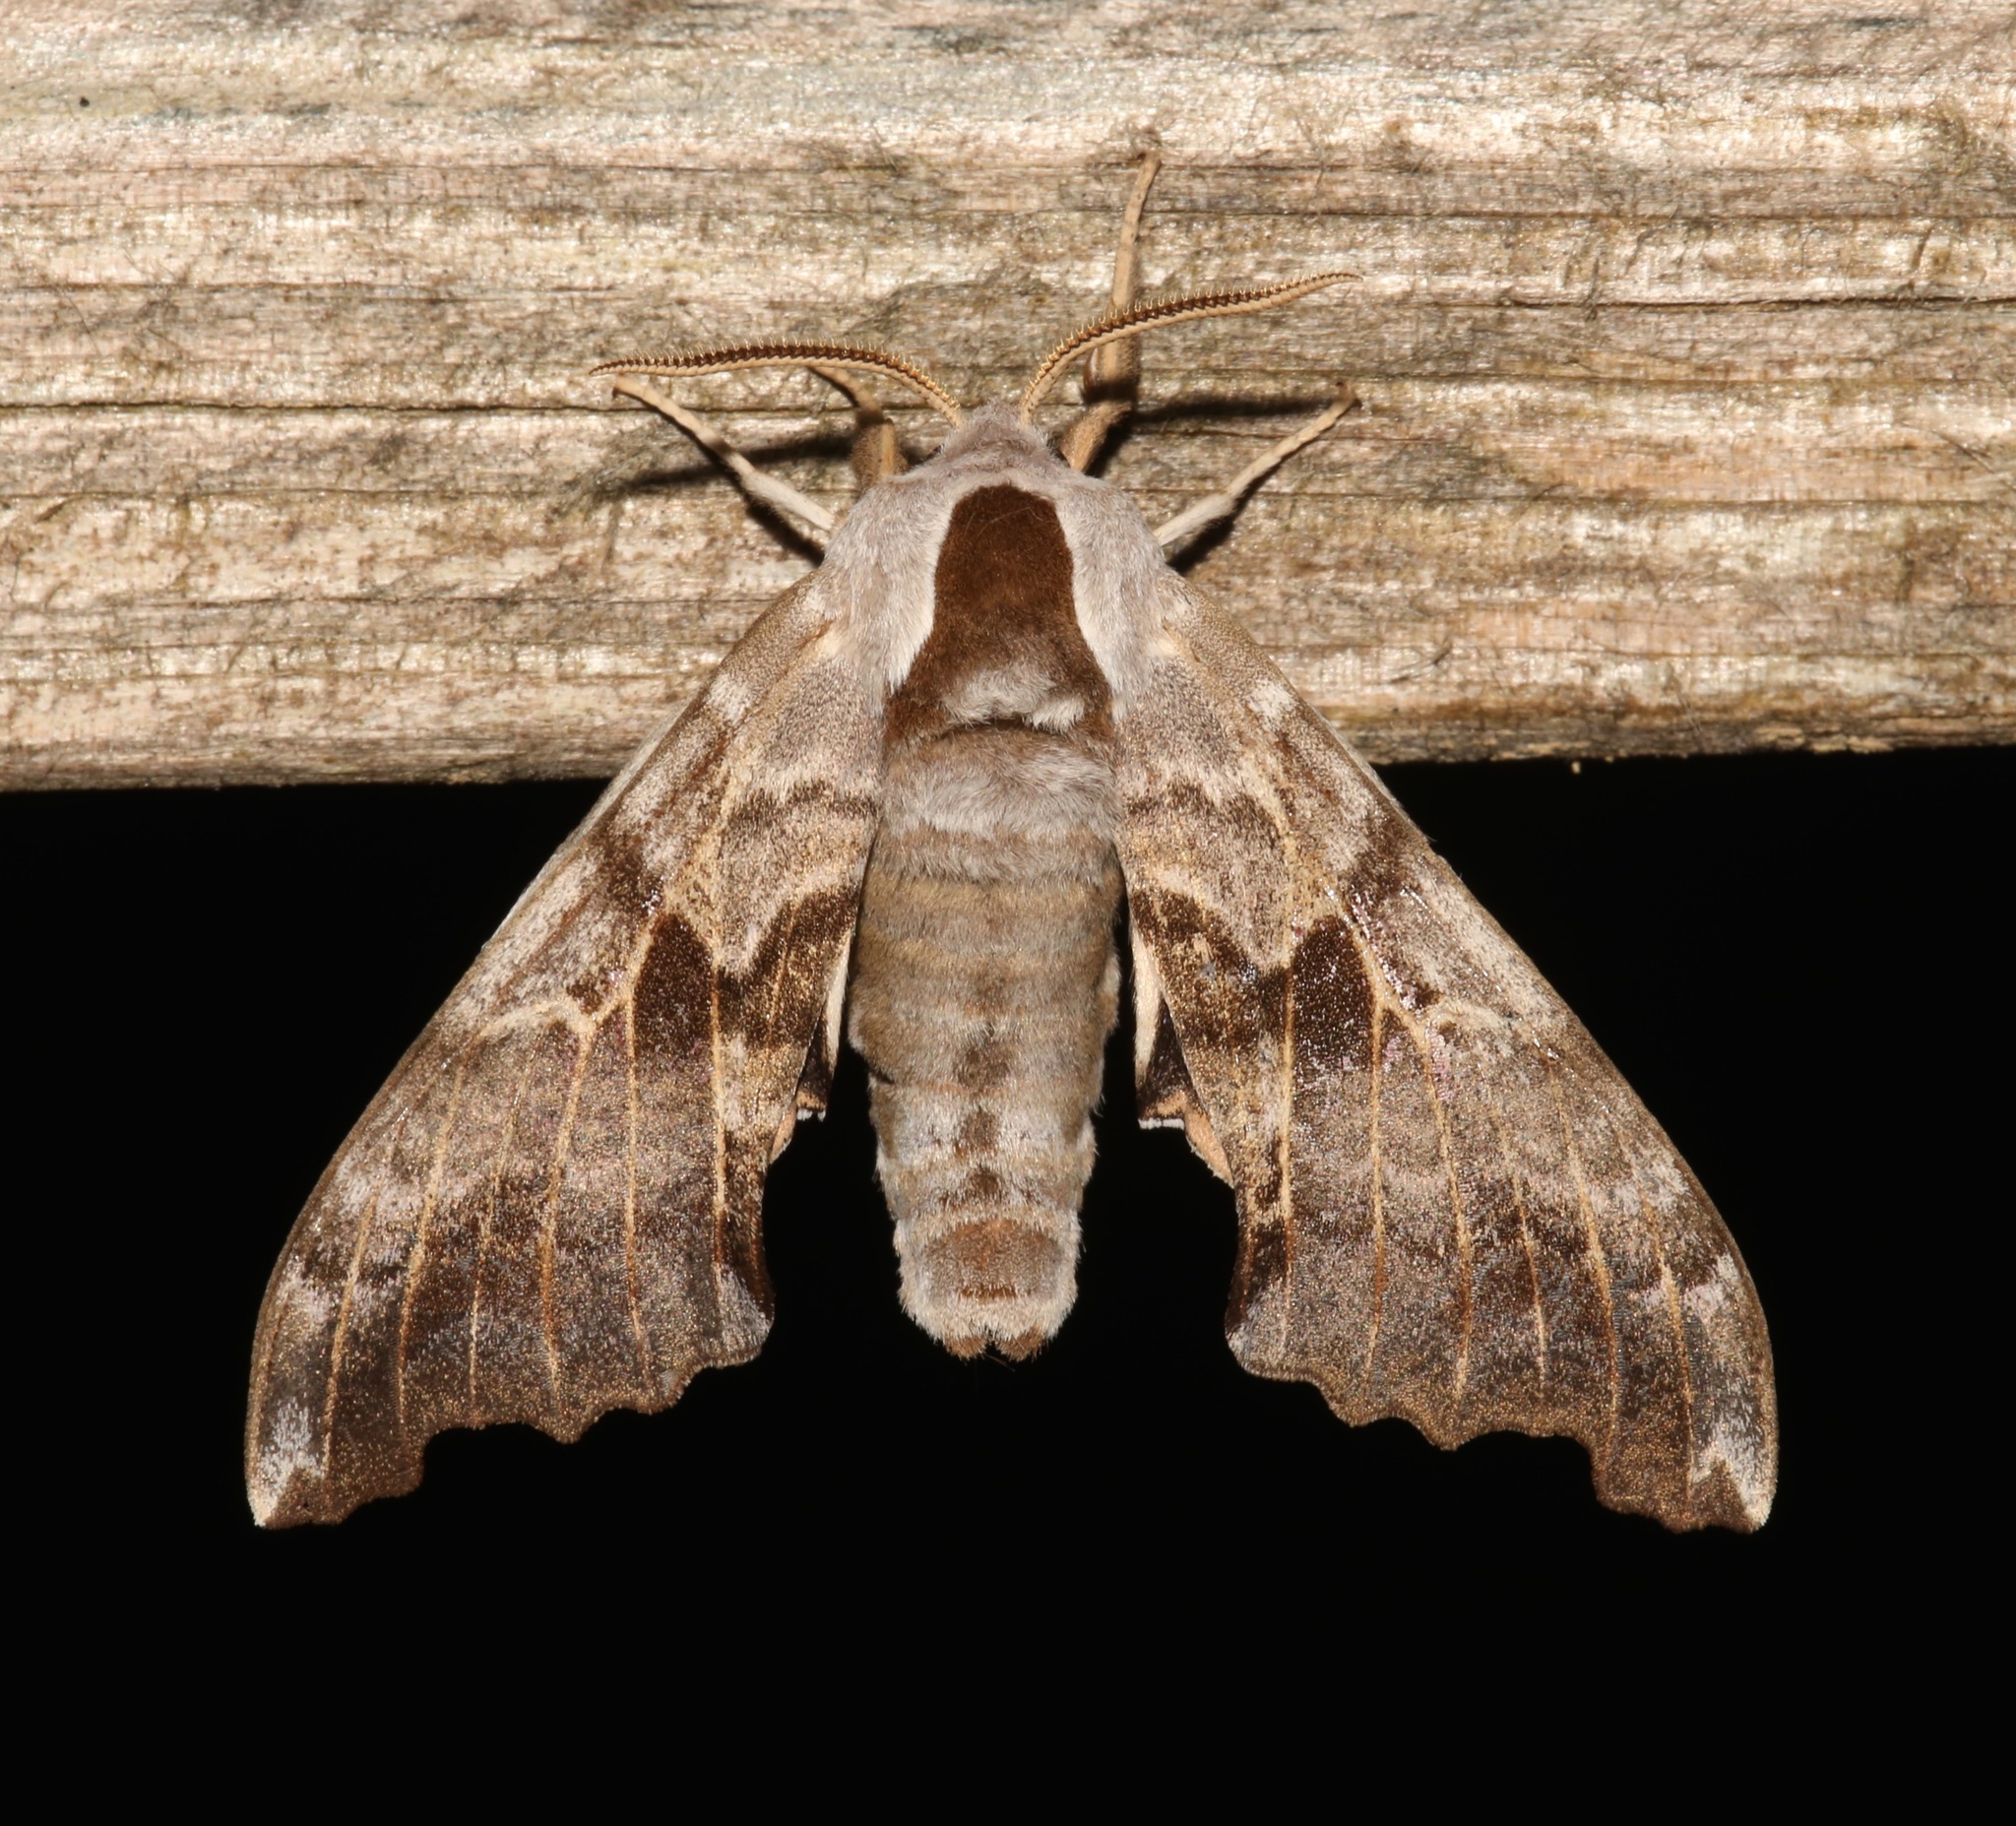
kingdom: Animalia
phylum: Arthropoda
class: Insecta
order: Lepidoptera
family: Sphingidae
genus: Smerinthus
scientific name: Smerinthus cerisyi
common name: Cerisy's sphinx moth
